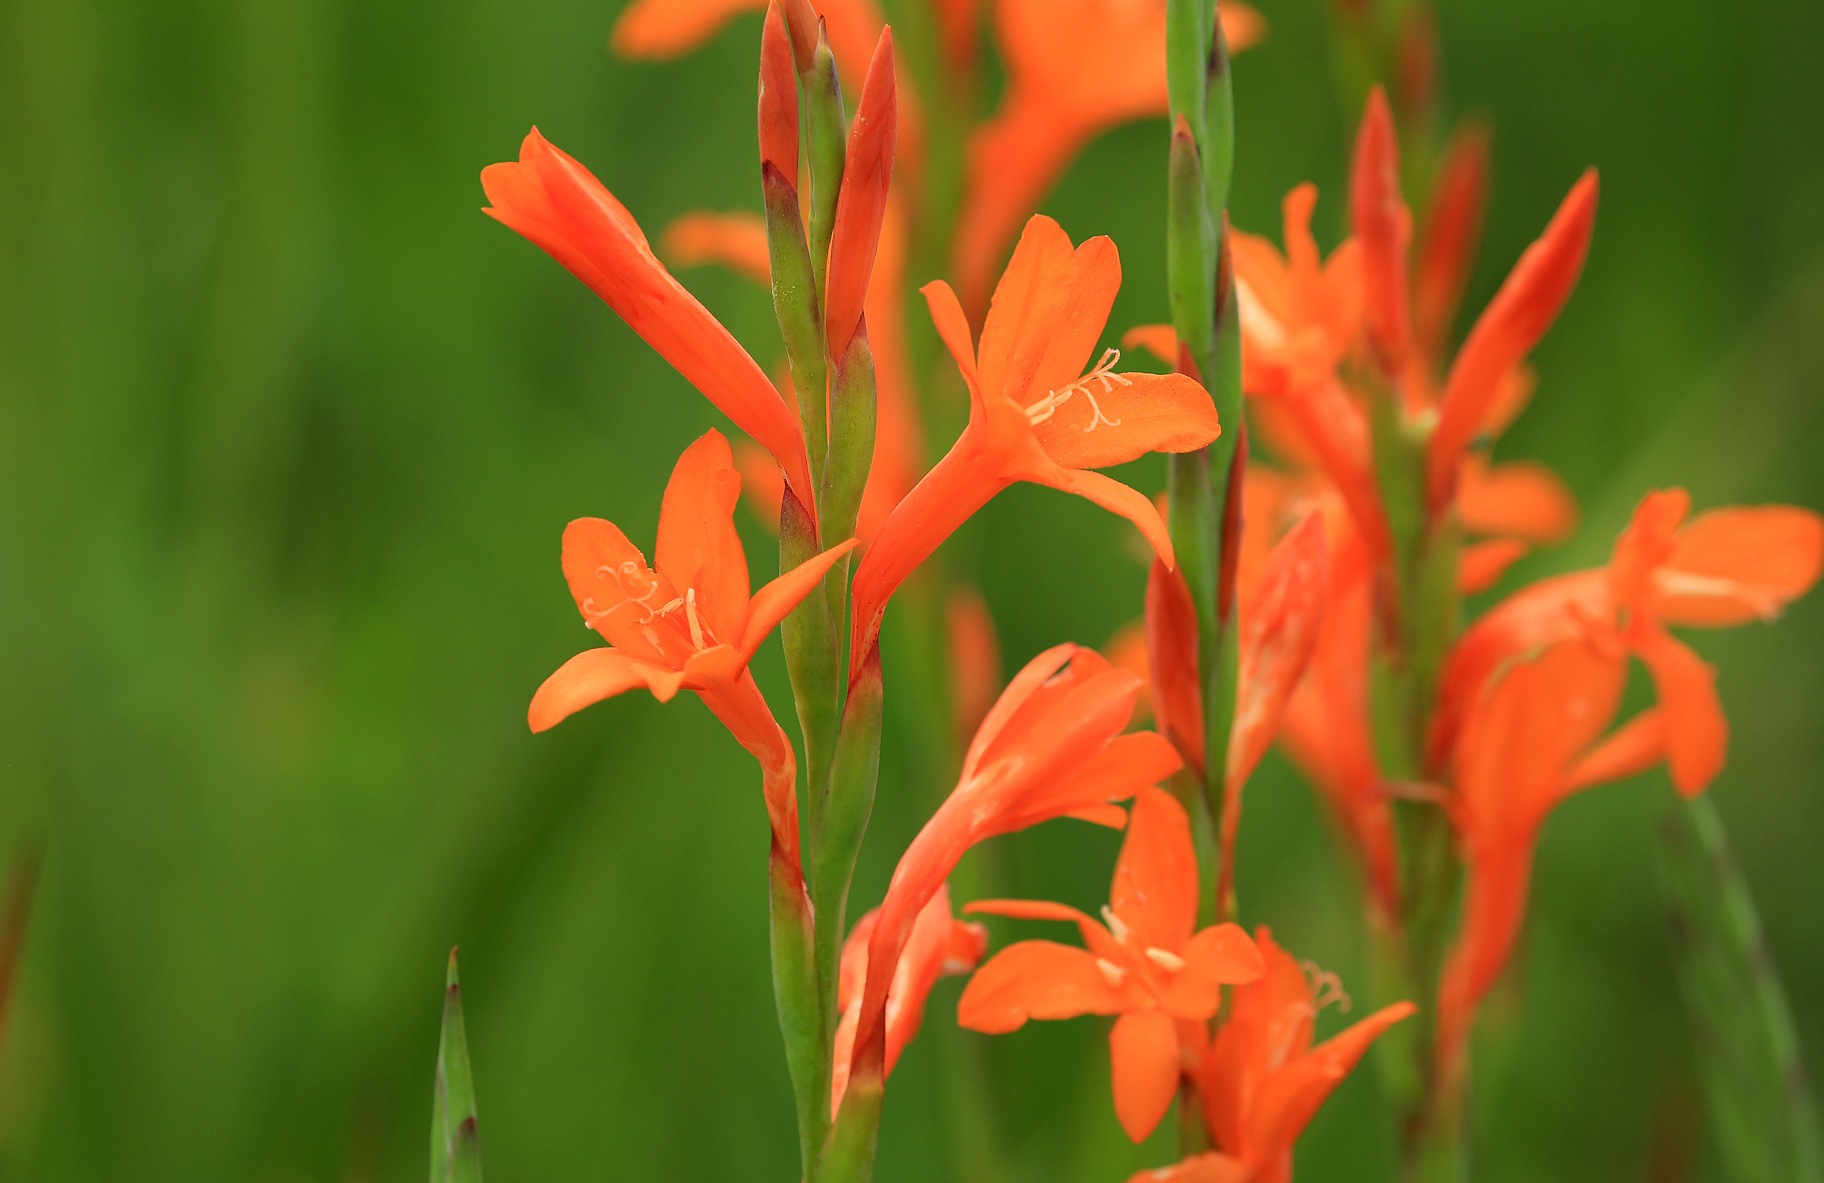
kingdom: Plantae
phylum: Tracheophyta
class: Liliopsida
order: Asparagales
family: Iridaceae
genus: Watsonia
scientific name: Watsonia pillansii
